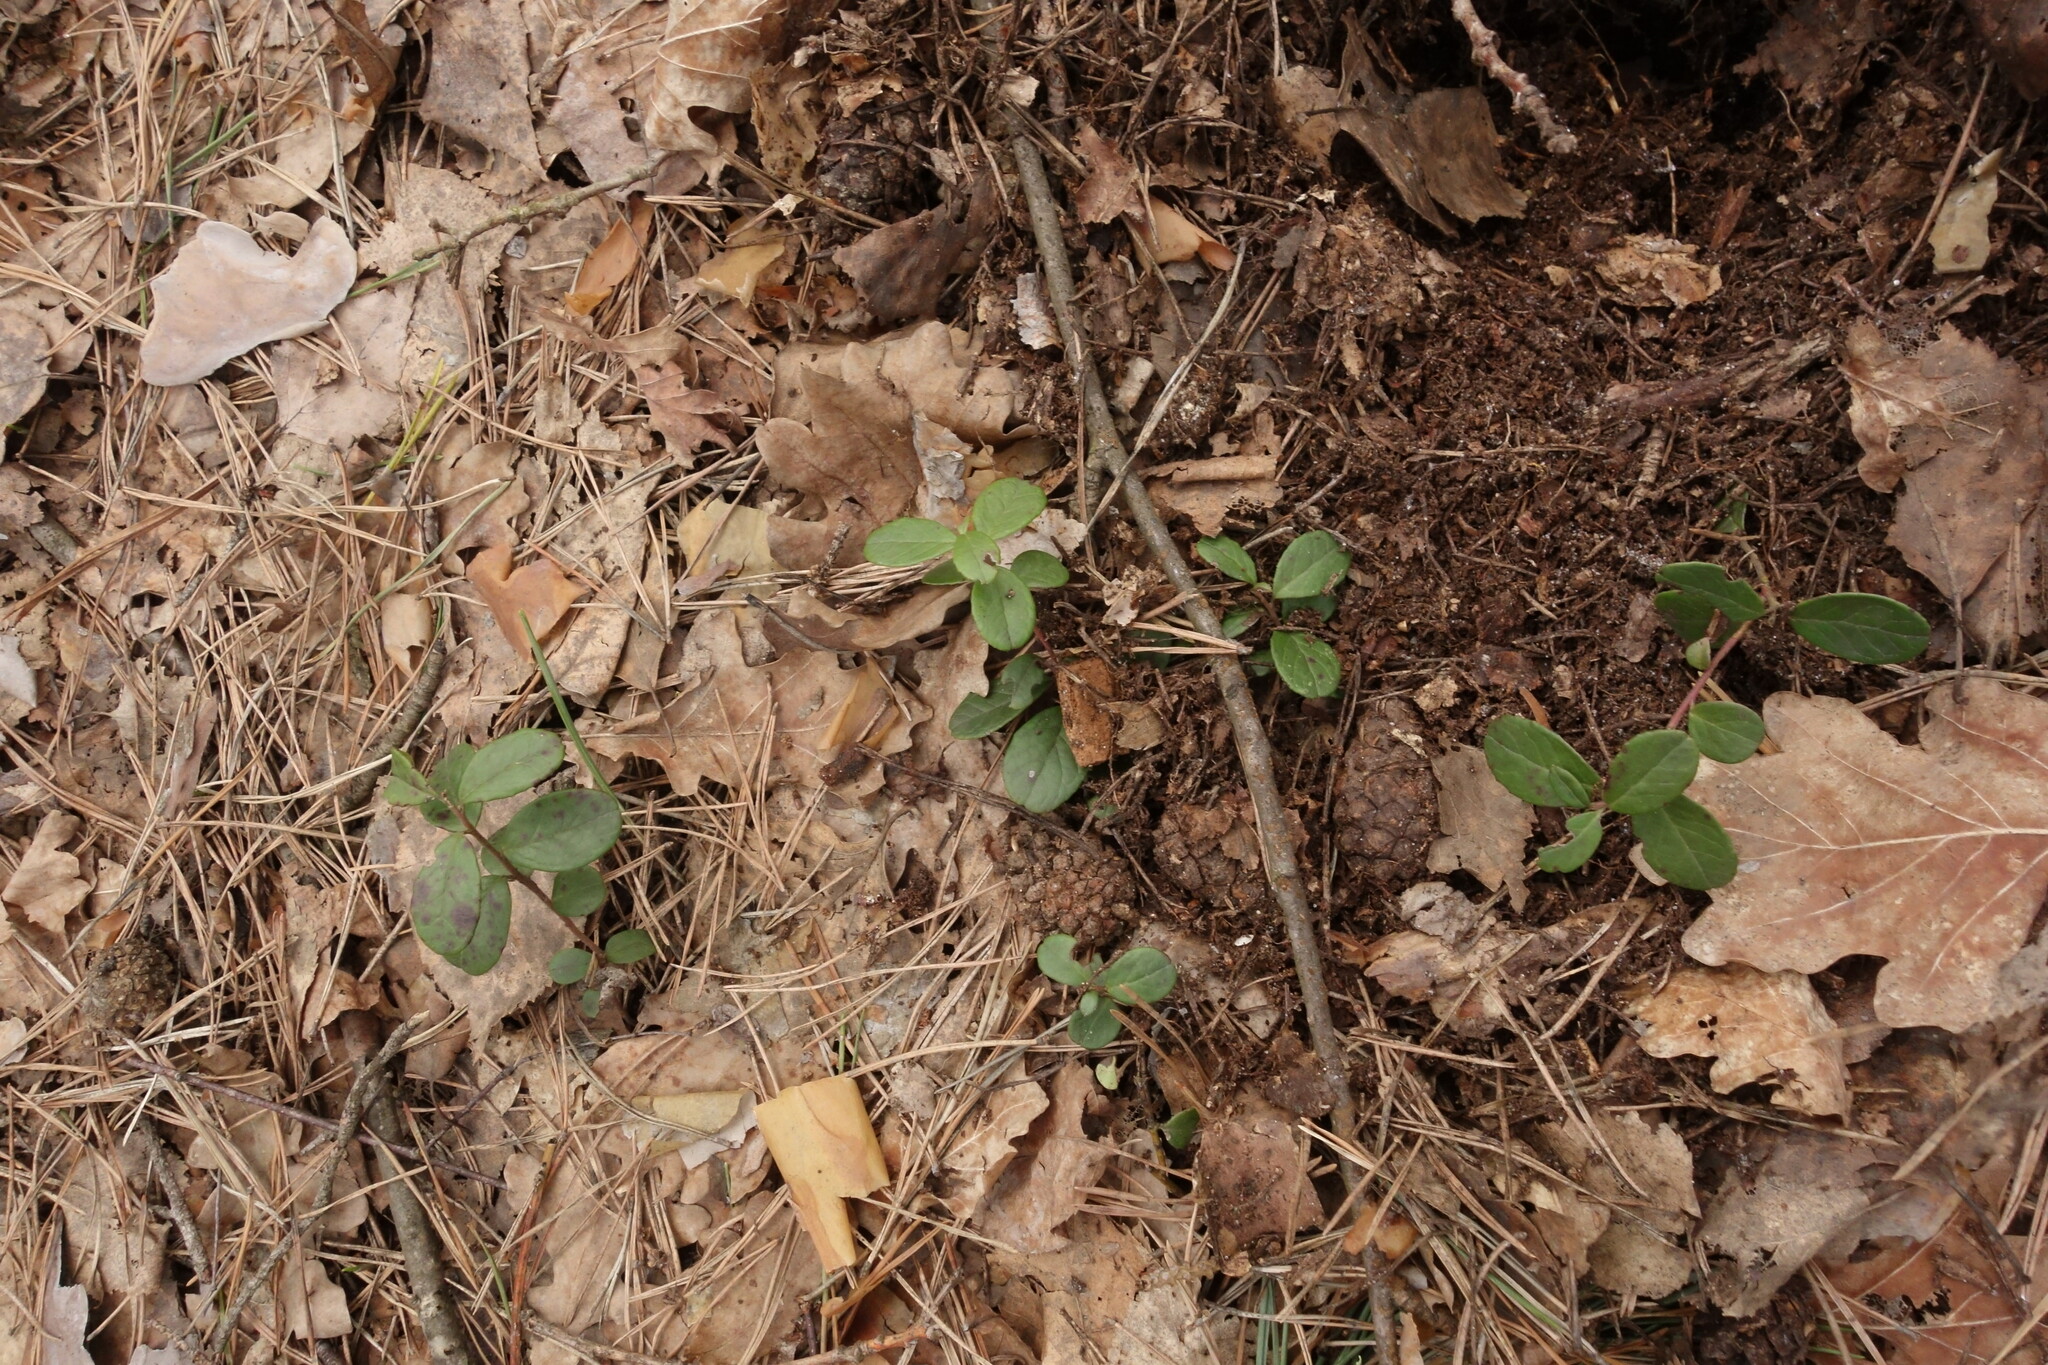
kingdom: Plantae
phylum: Tracheophyta
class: Magnoliopsida
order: Ericales
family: Ericaceae
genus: Vaccinium
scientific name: Vaccinium vitis-idaea
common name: Cowberry
